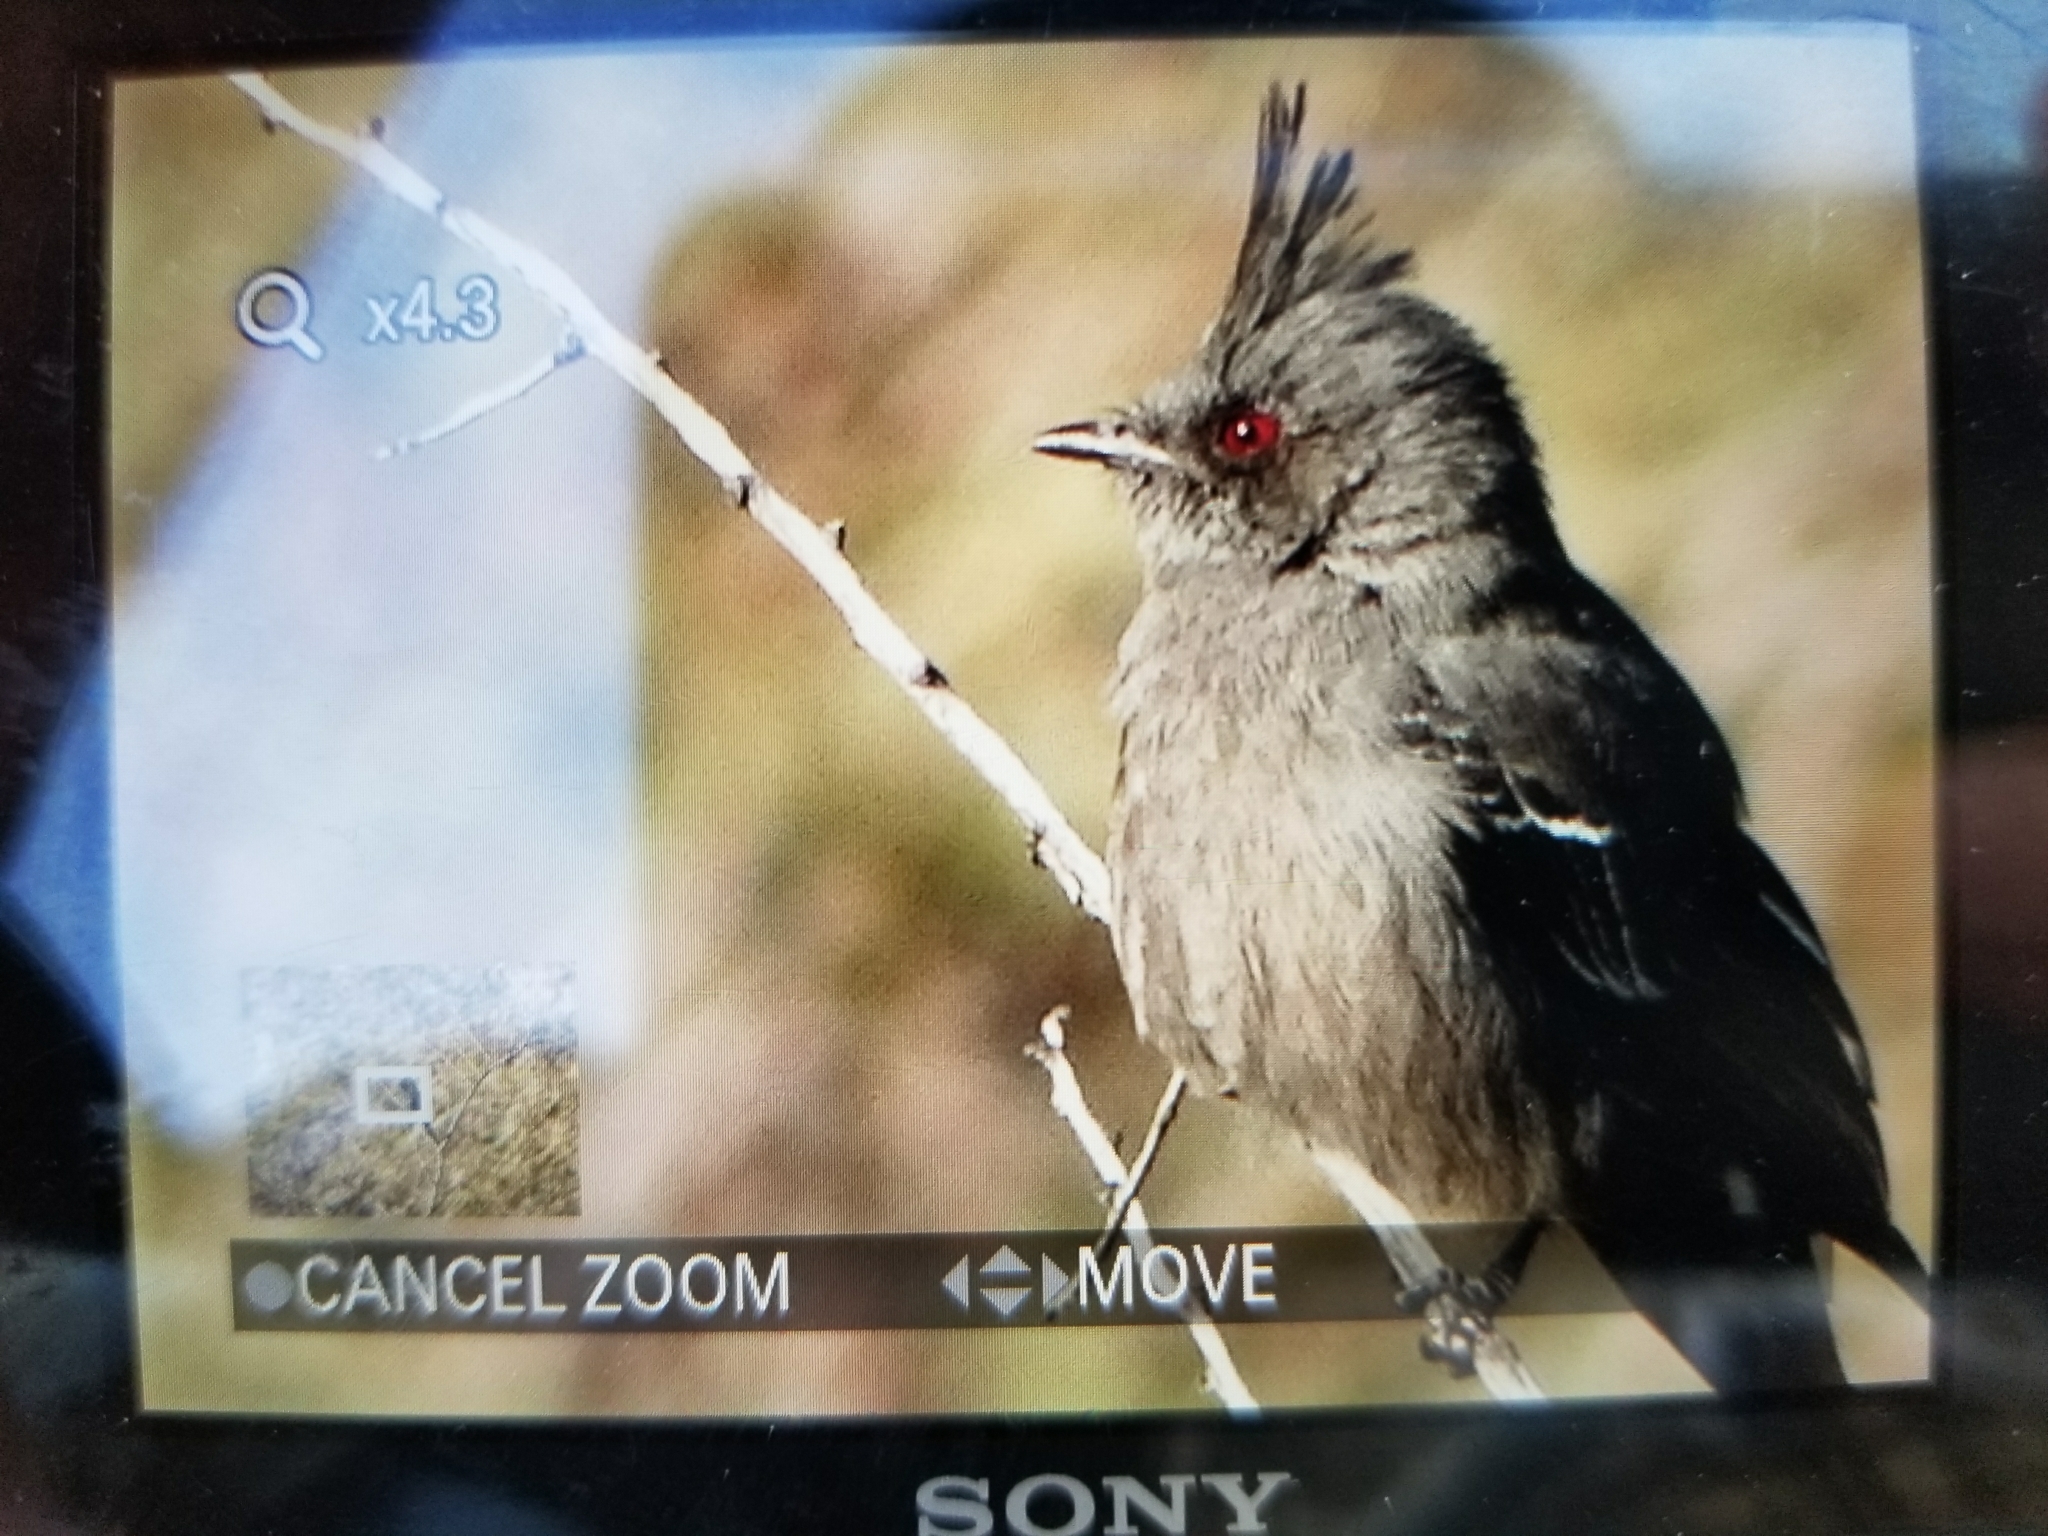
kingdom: Animalia
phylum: Chordata
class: Aves
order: Passeriformes
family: Ptilogonatidae
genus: Phainopepla
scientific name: Phainopepla nitens
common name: Phainopepla
